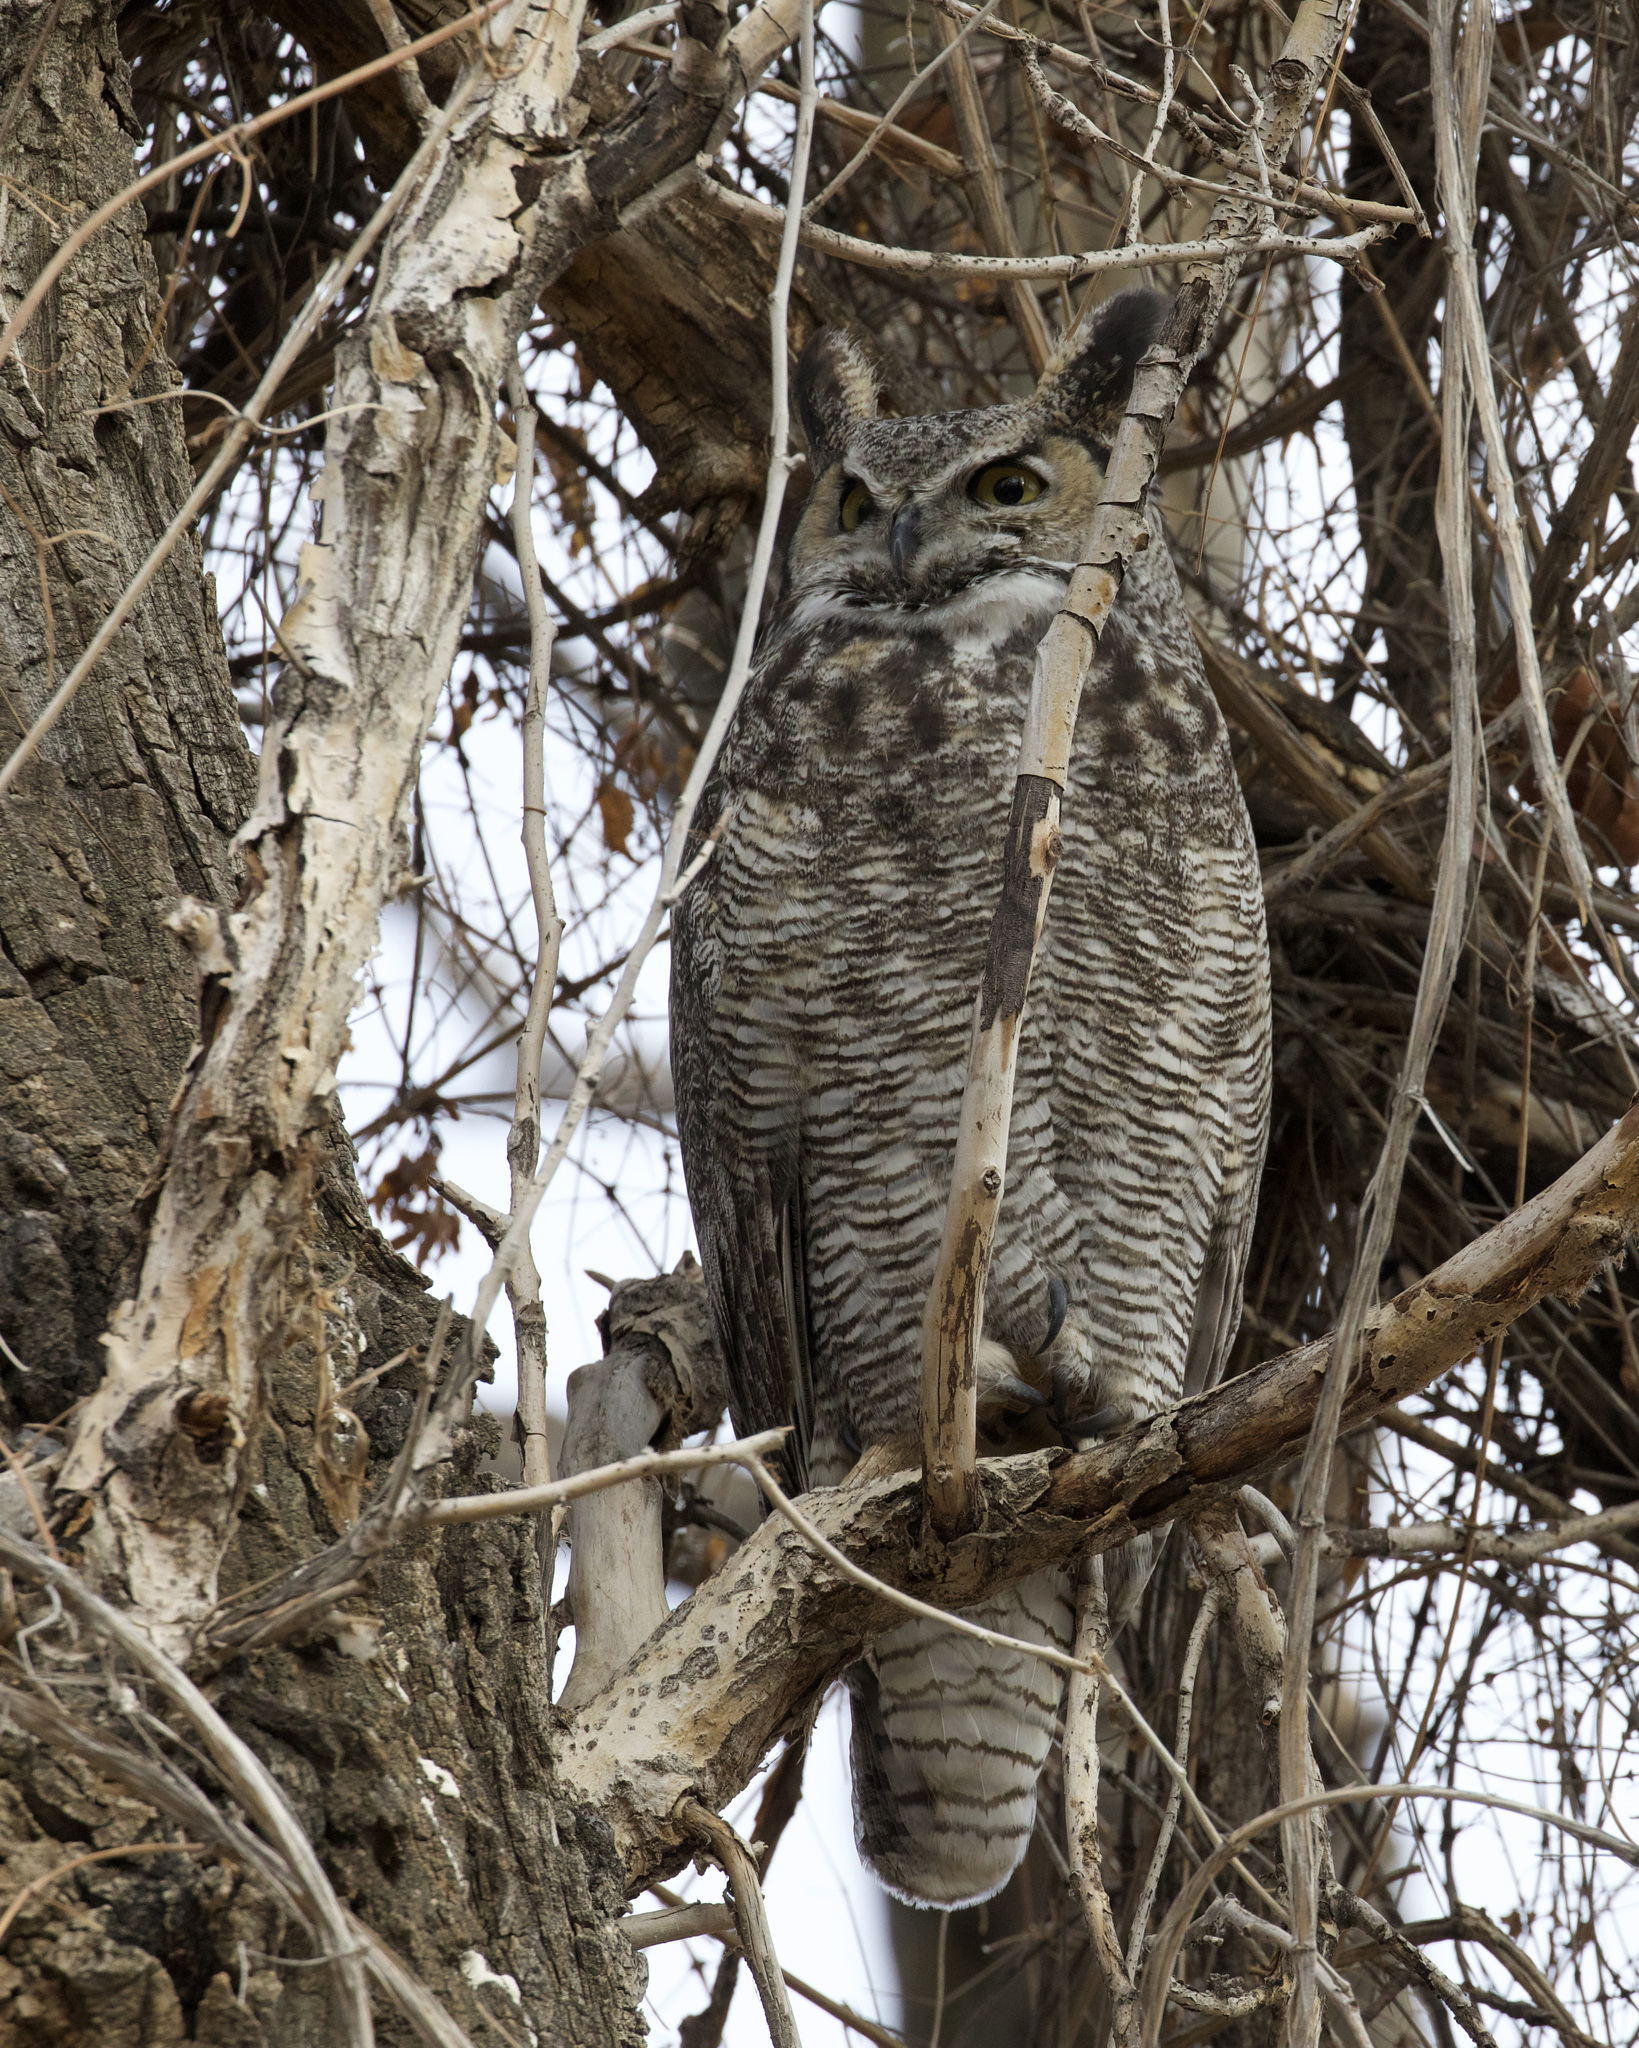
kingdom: Animalia
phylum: Chordata
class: Aves
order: Strigiformes
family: Strigidae
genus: Bubo
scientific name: Bubo virginianus
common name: Great horned owl
